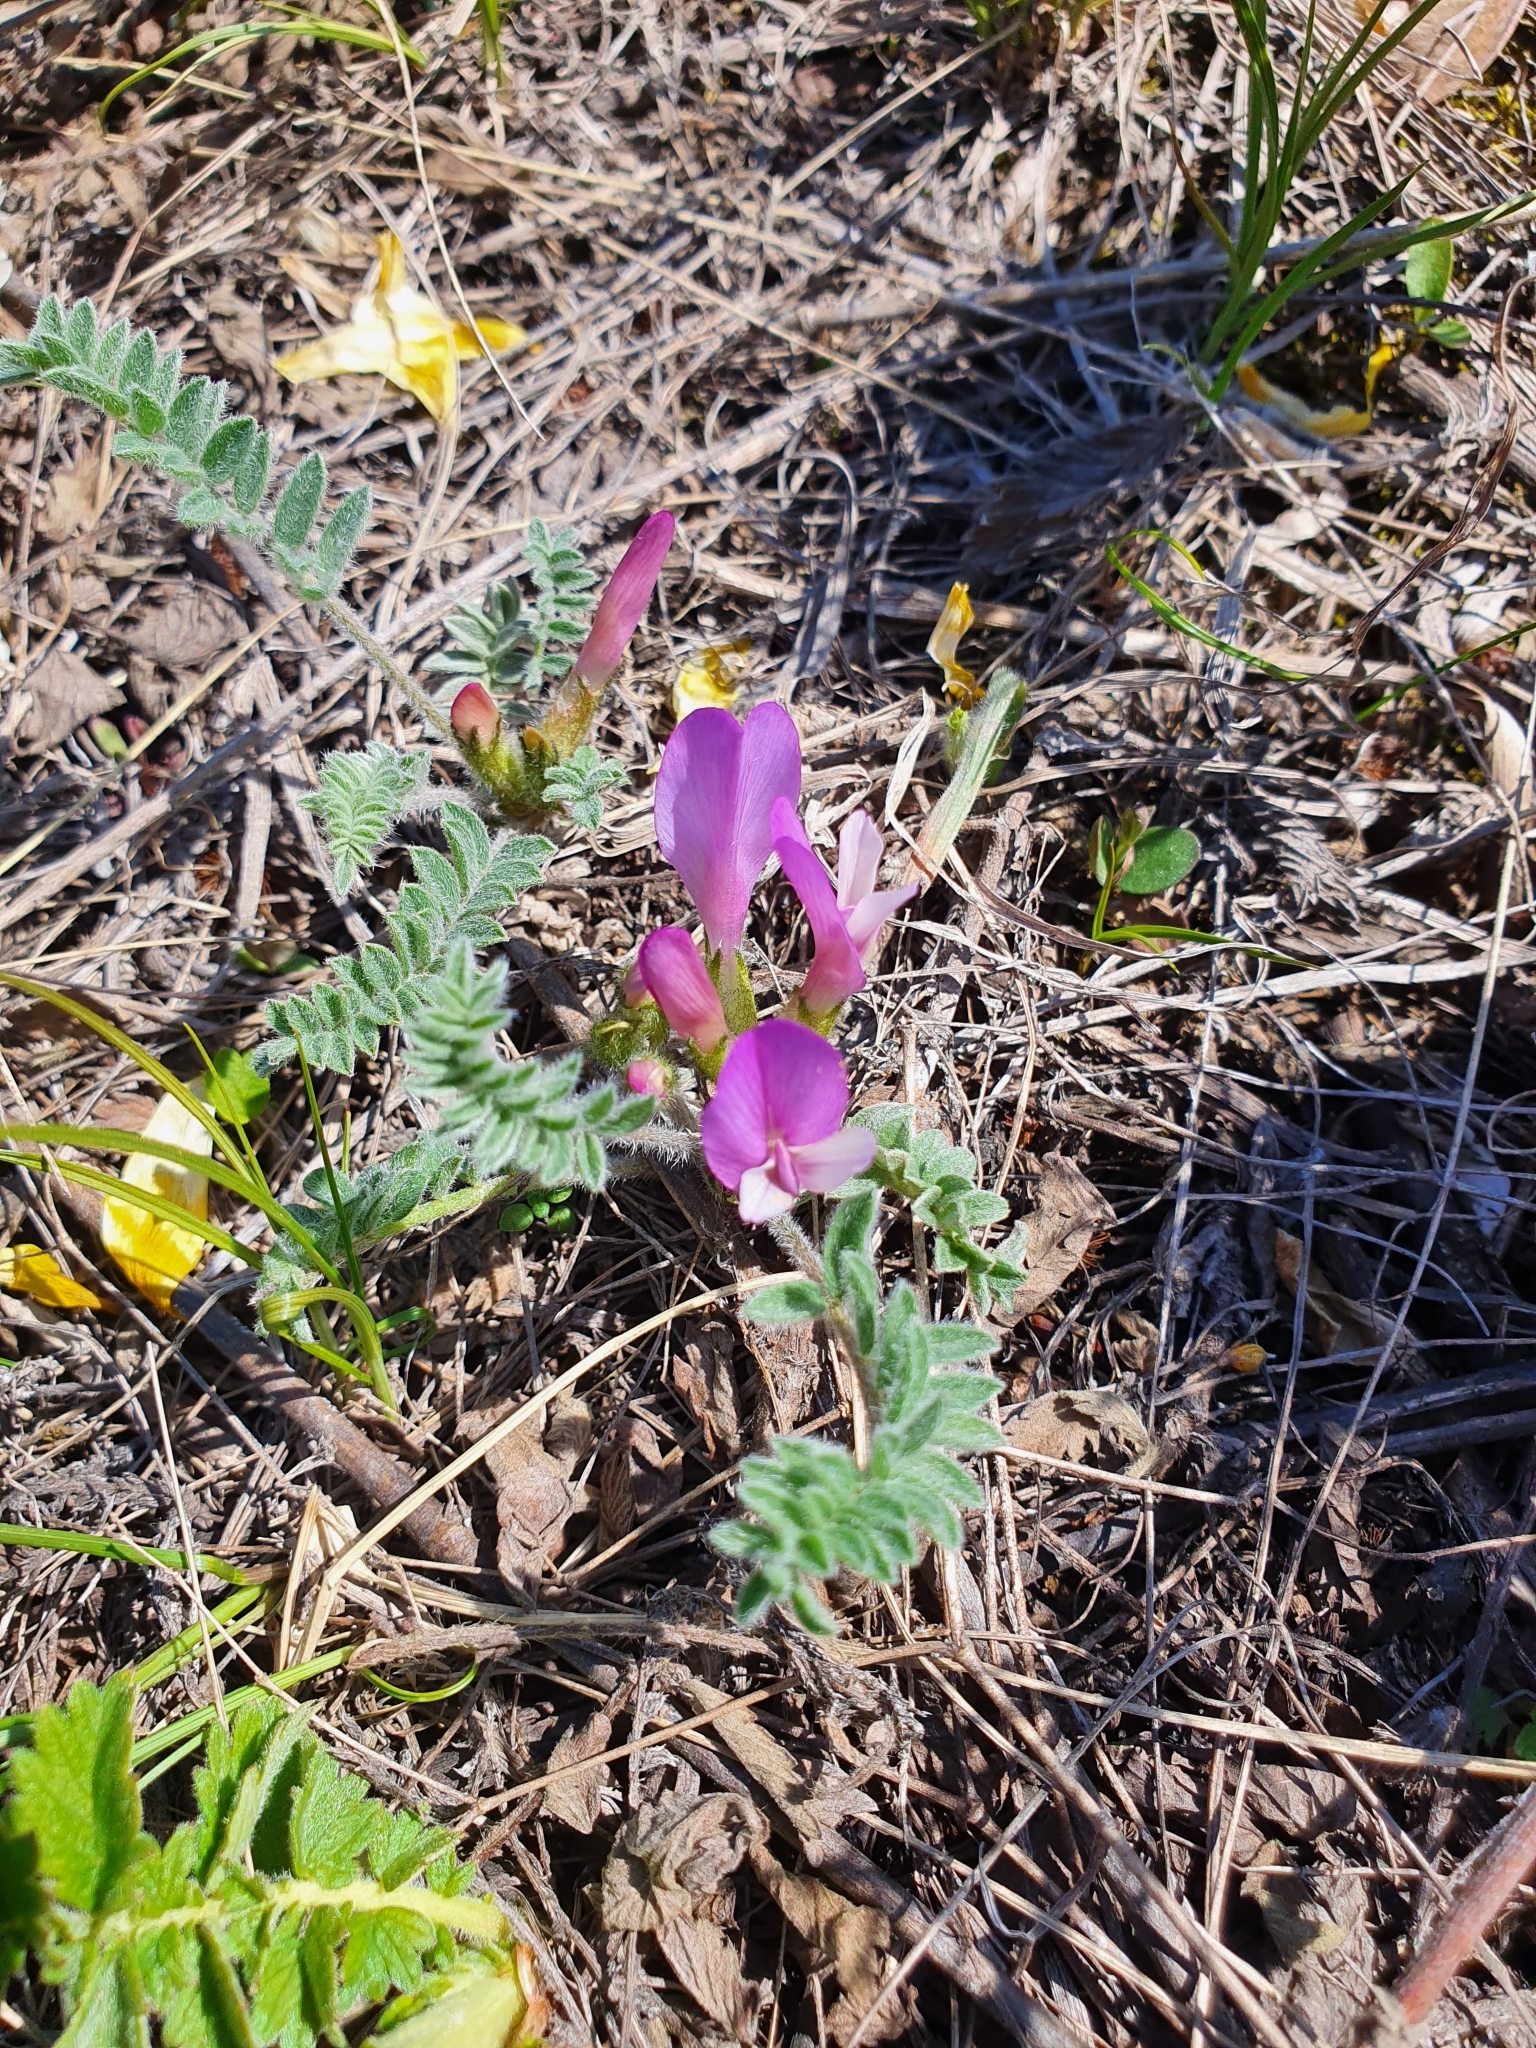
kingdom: Plantae
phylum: Tracheophyta
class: Magnoliopsida
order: Fabales
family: Fabaceae
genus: Astragalus
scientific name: Astragalus testiculatus
